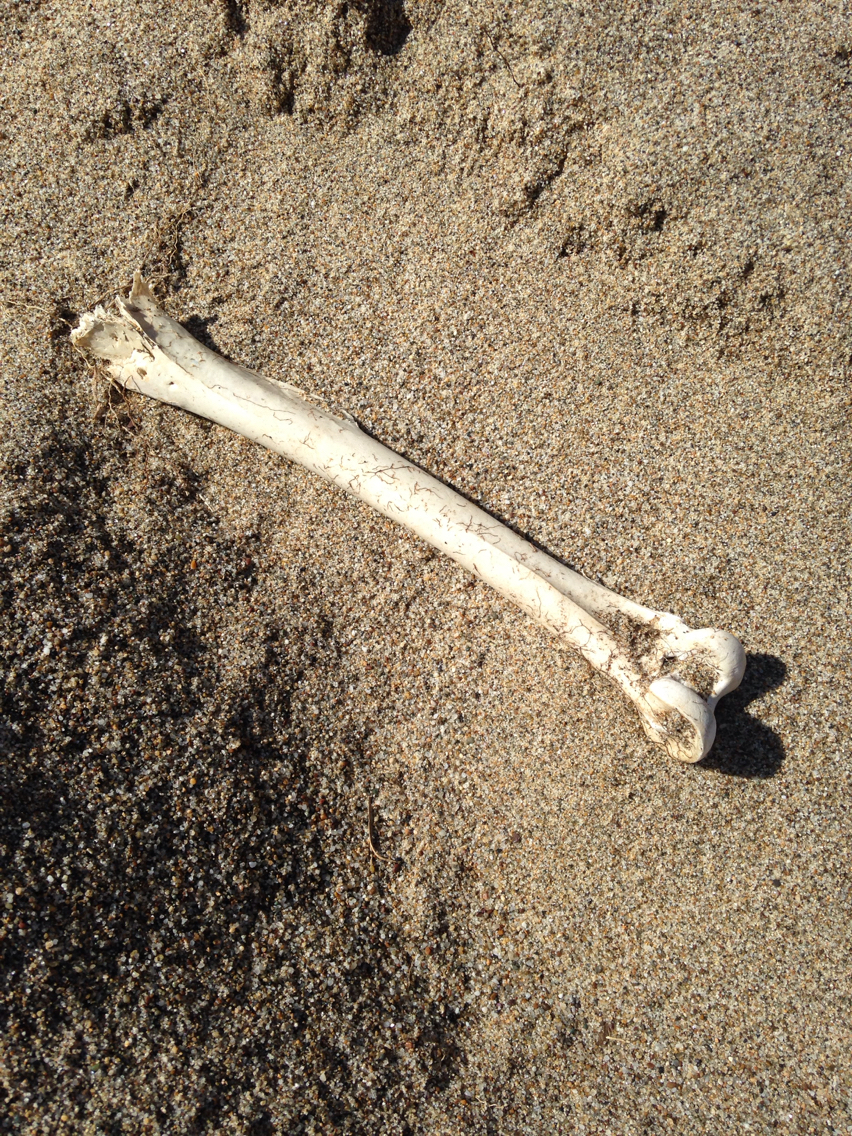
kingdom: Animalia
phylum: Chordata
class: Mammalia
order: Artiodactyla
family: Cervidae
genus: Odocoileus
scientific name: Odocoileus hemionus
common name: Mule deer
